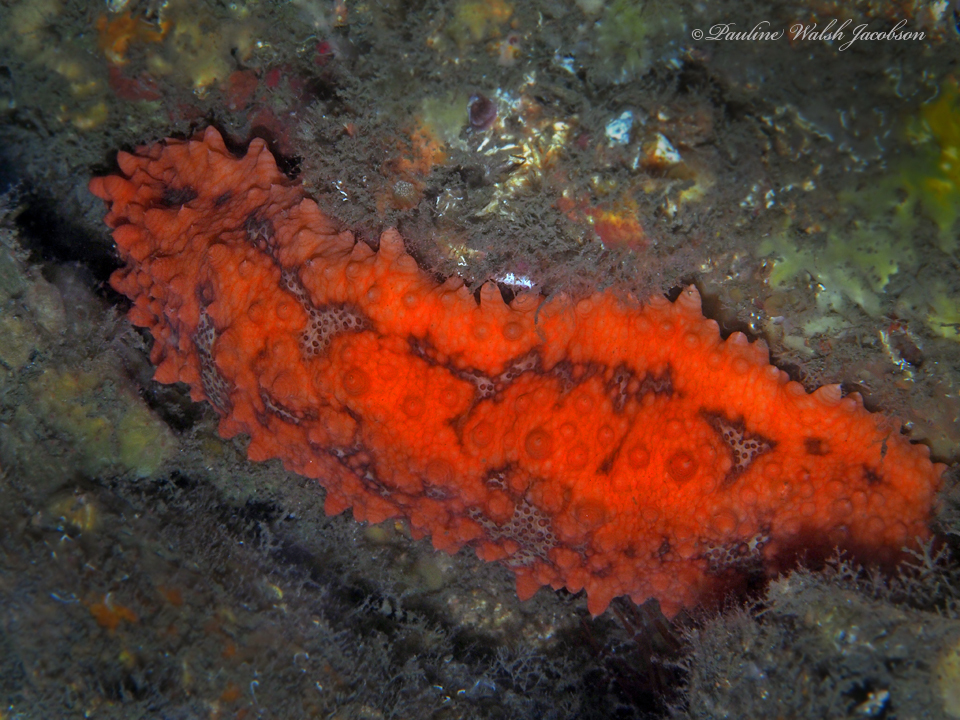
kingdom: Animalia
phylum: Echinodermata
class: Holothuroidea
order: Synallactida
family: Stichopodidae
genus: Isostichopus
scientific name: Isostichopus badionotus
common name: Chocolate chip cucumber
